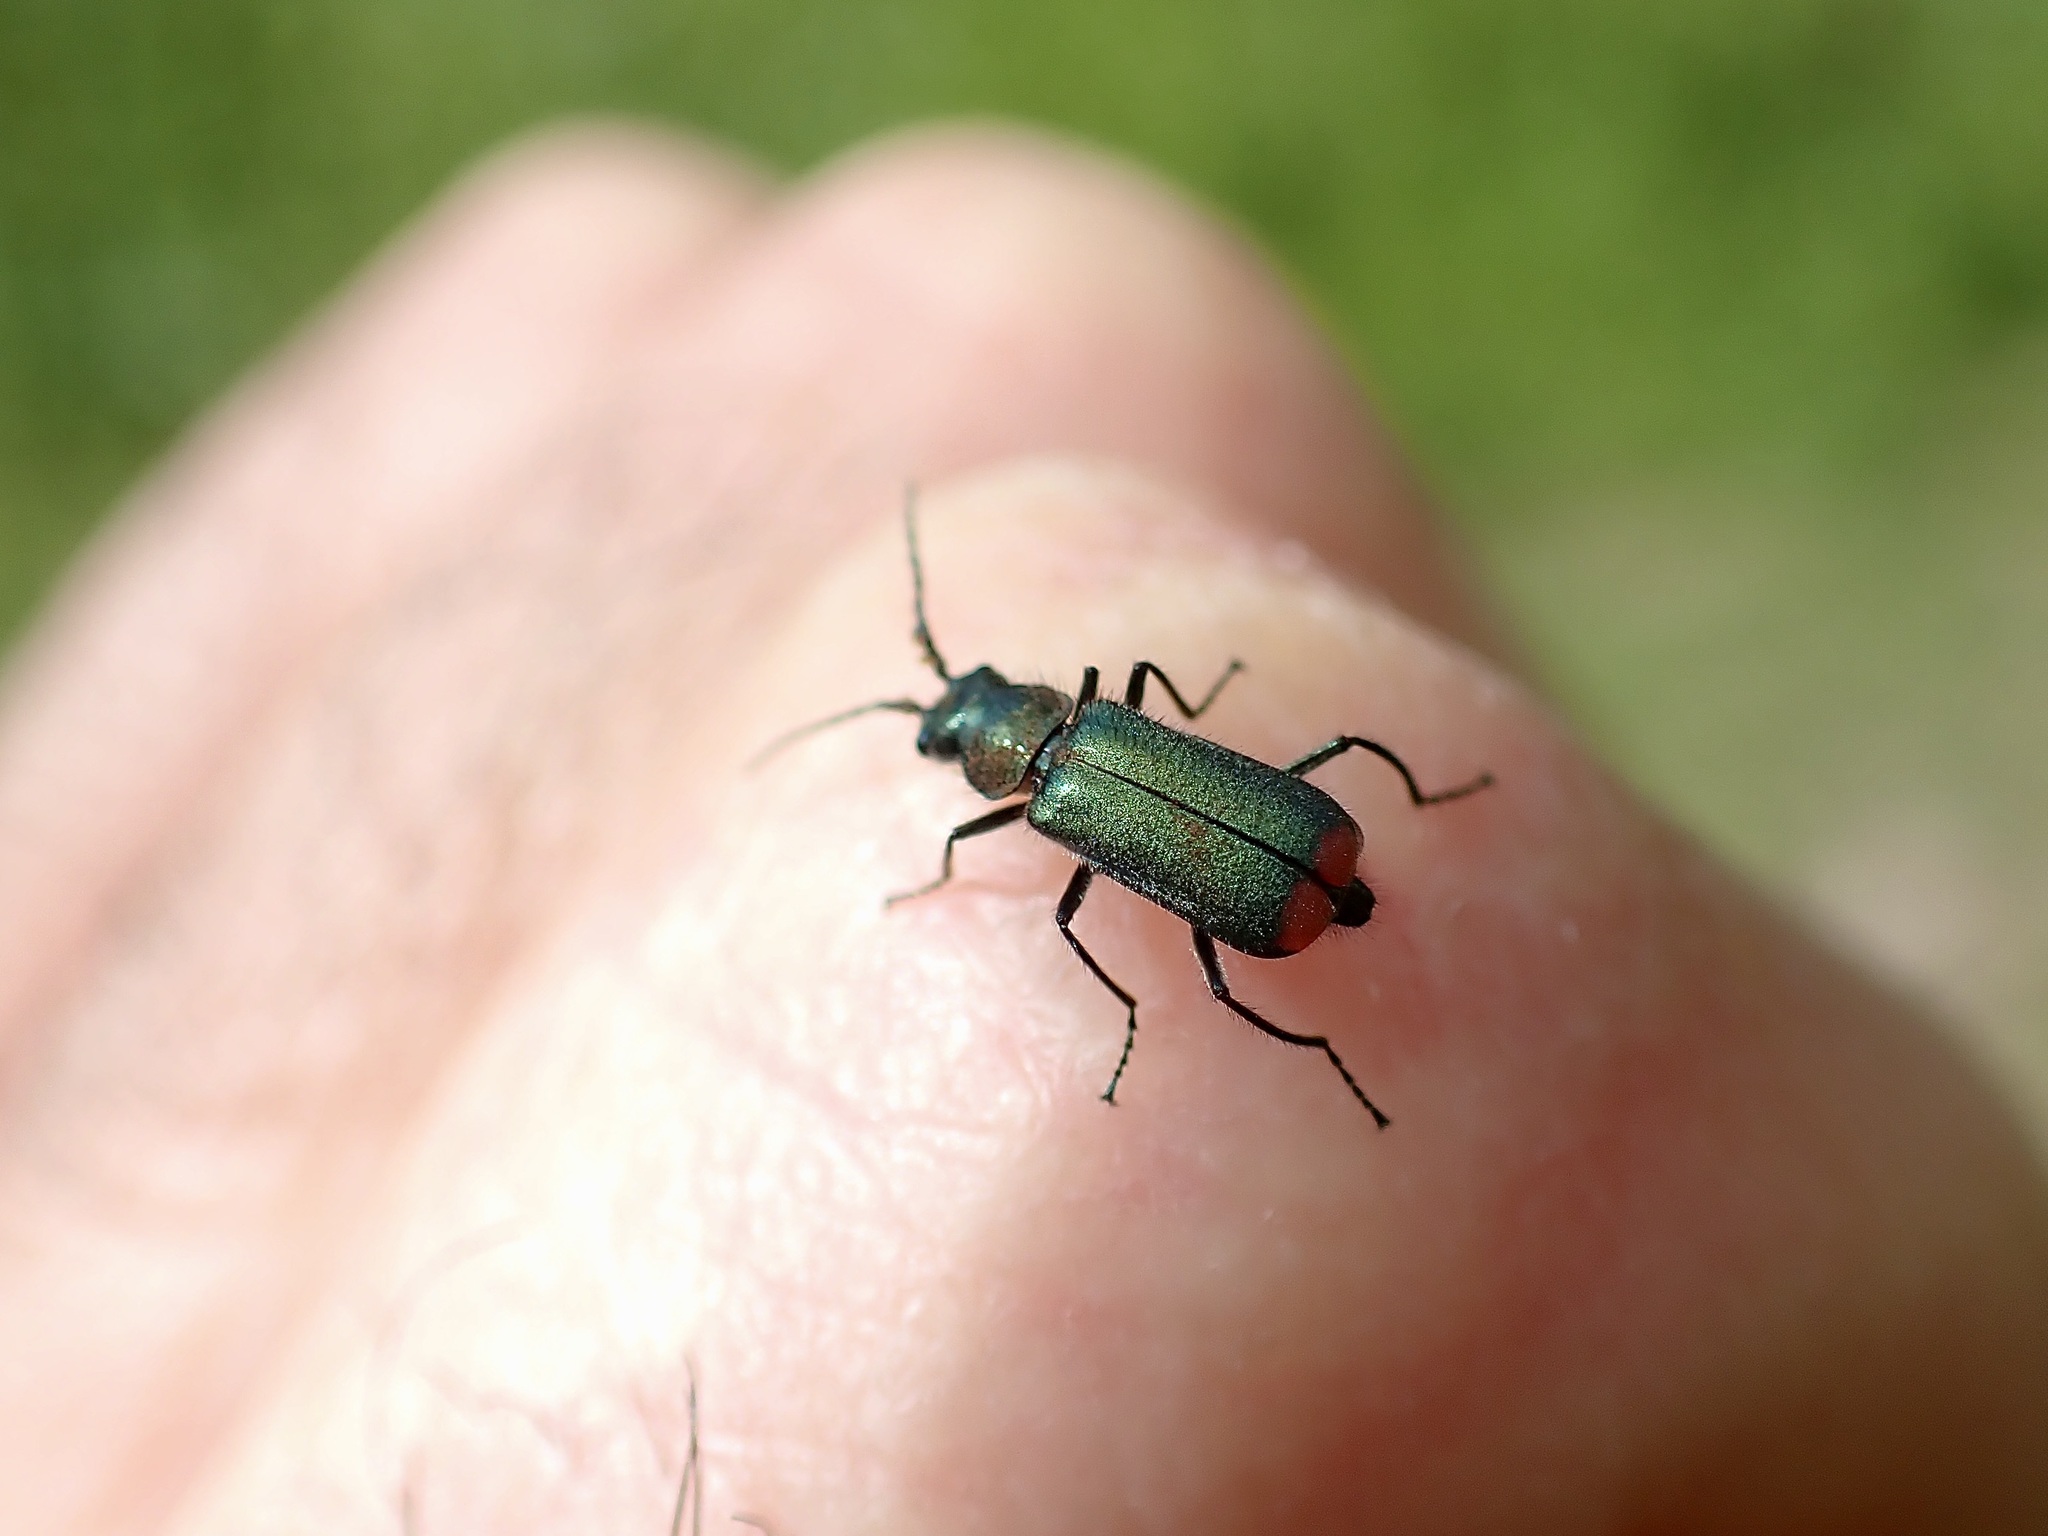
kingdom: Animalia
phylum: Arthropoda
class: Insecta
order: Coleoptera
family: Melyridae
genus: Malachius
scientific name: Malachius bipustulatus
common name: Malachite beetle
